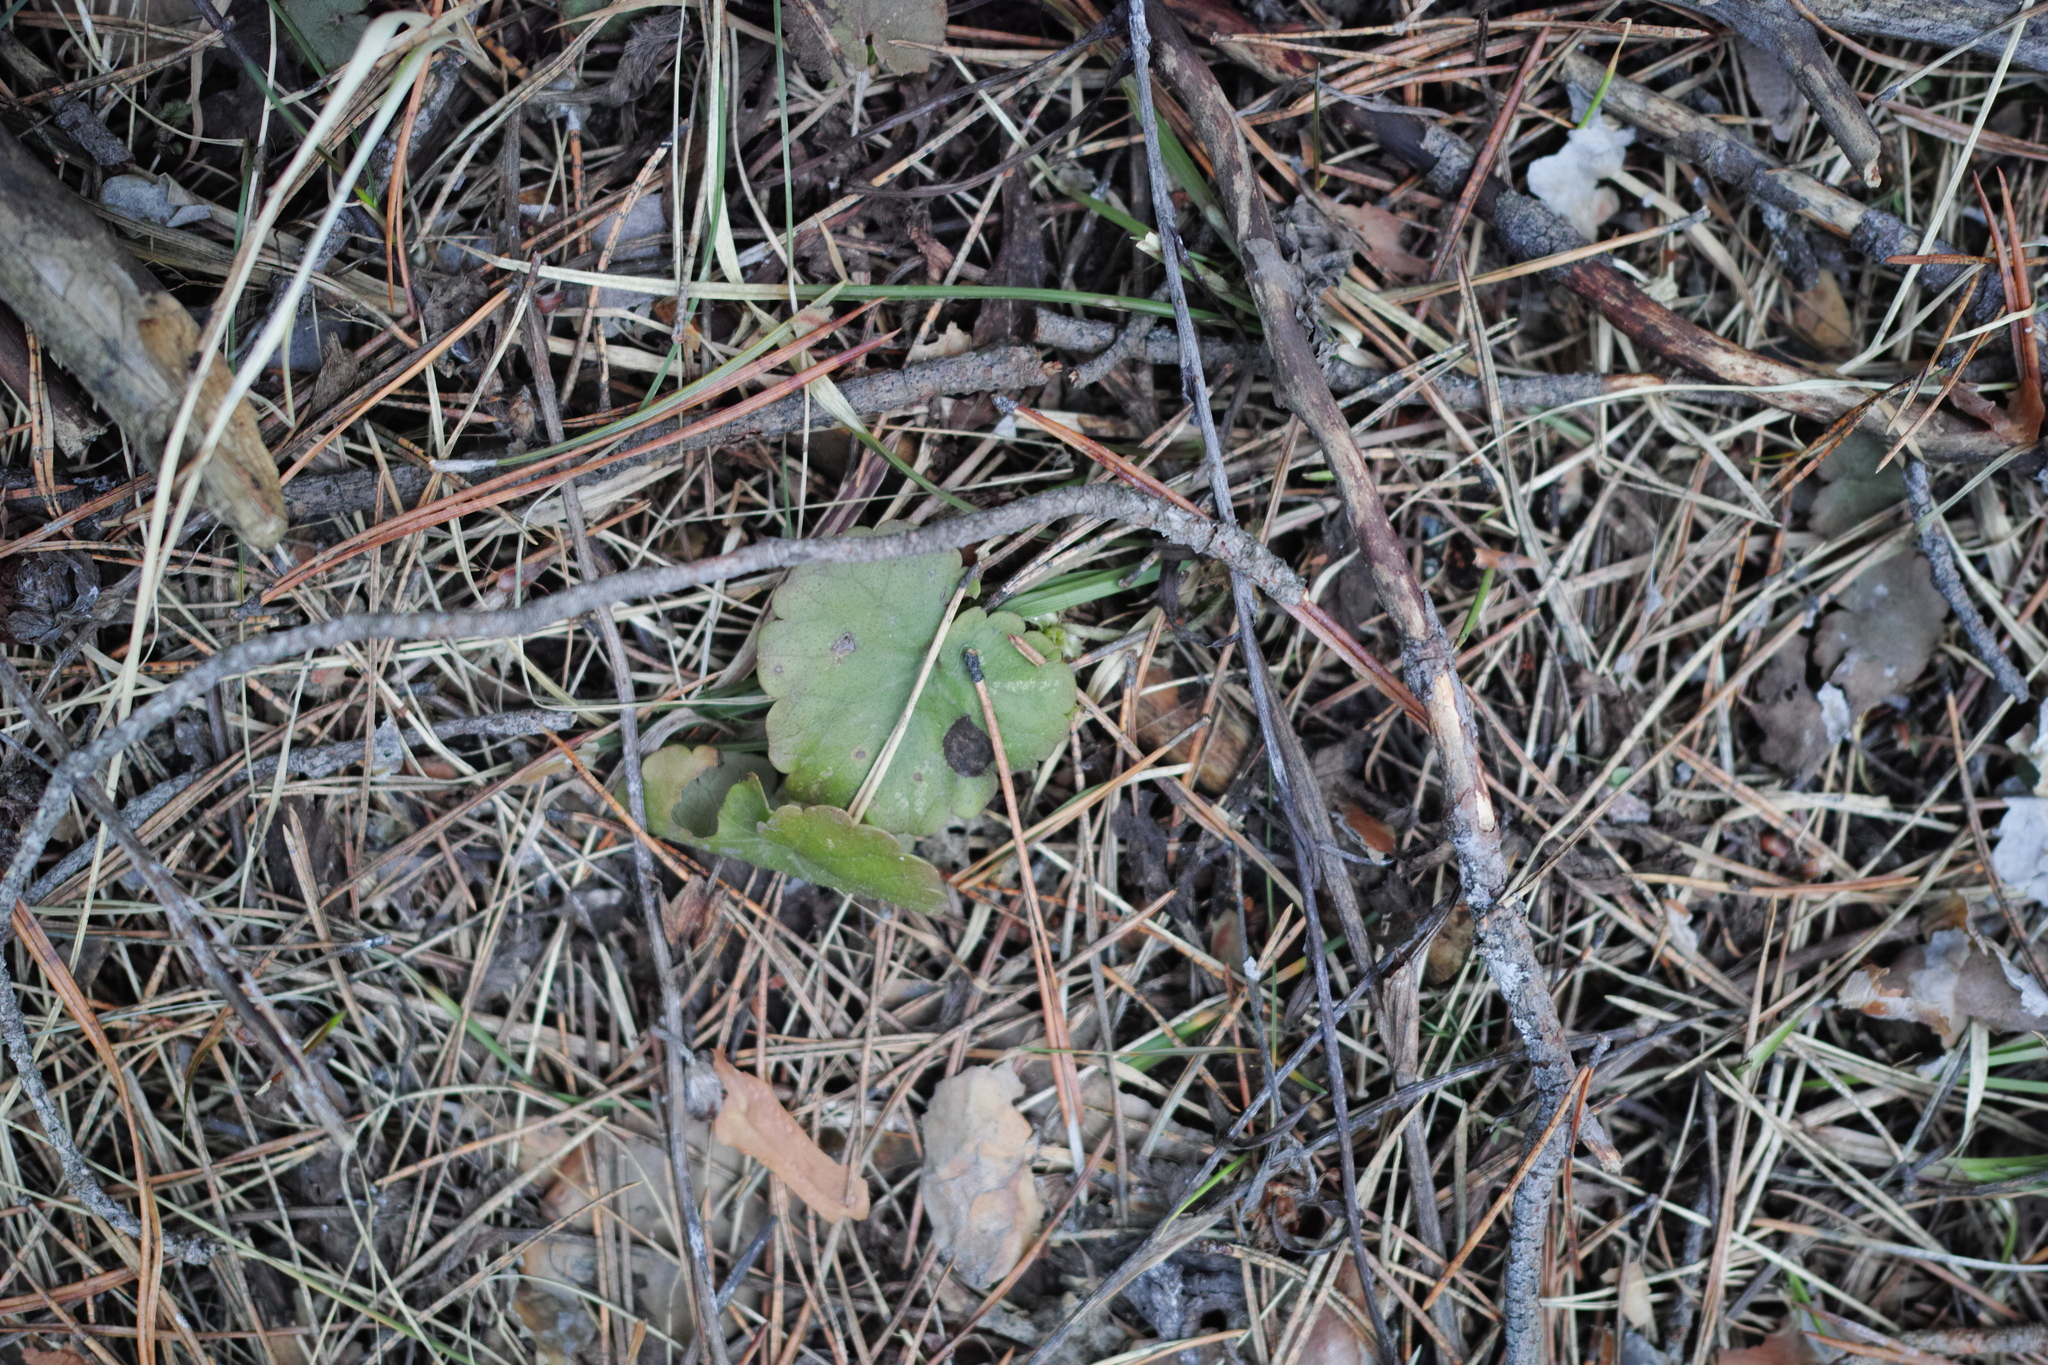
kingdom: Plantae
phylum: Tracheophyta
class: Magnoliopsida
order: Lamiales
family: Lamiaceae
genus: Glechoma
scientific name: Glechoma hederacea
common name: Ground ivy
